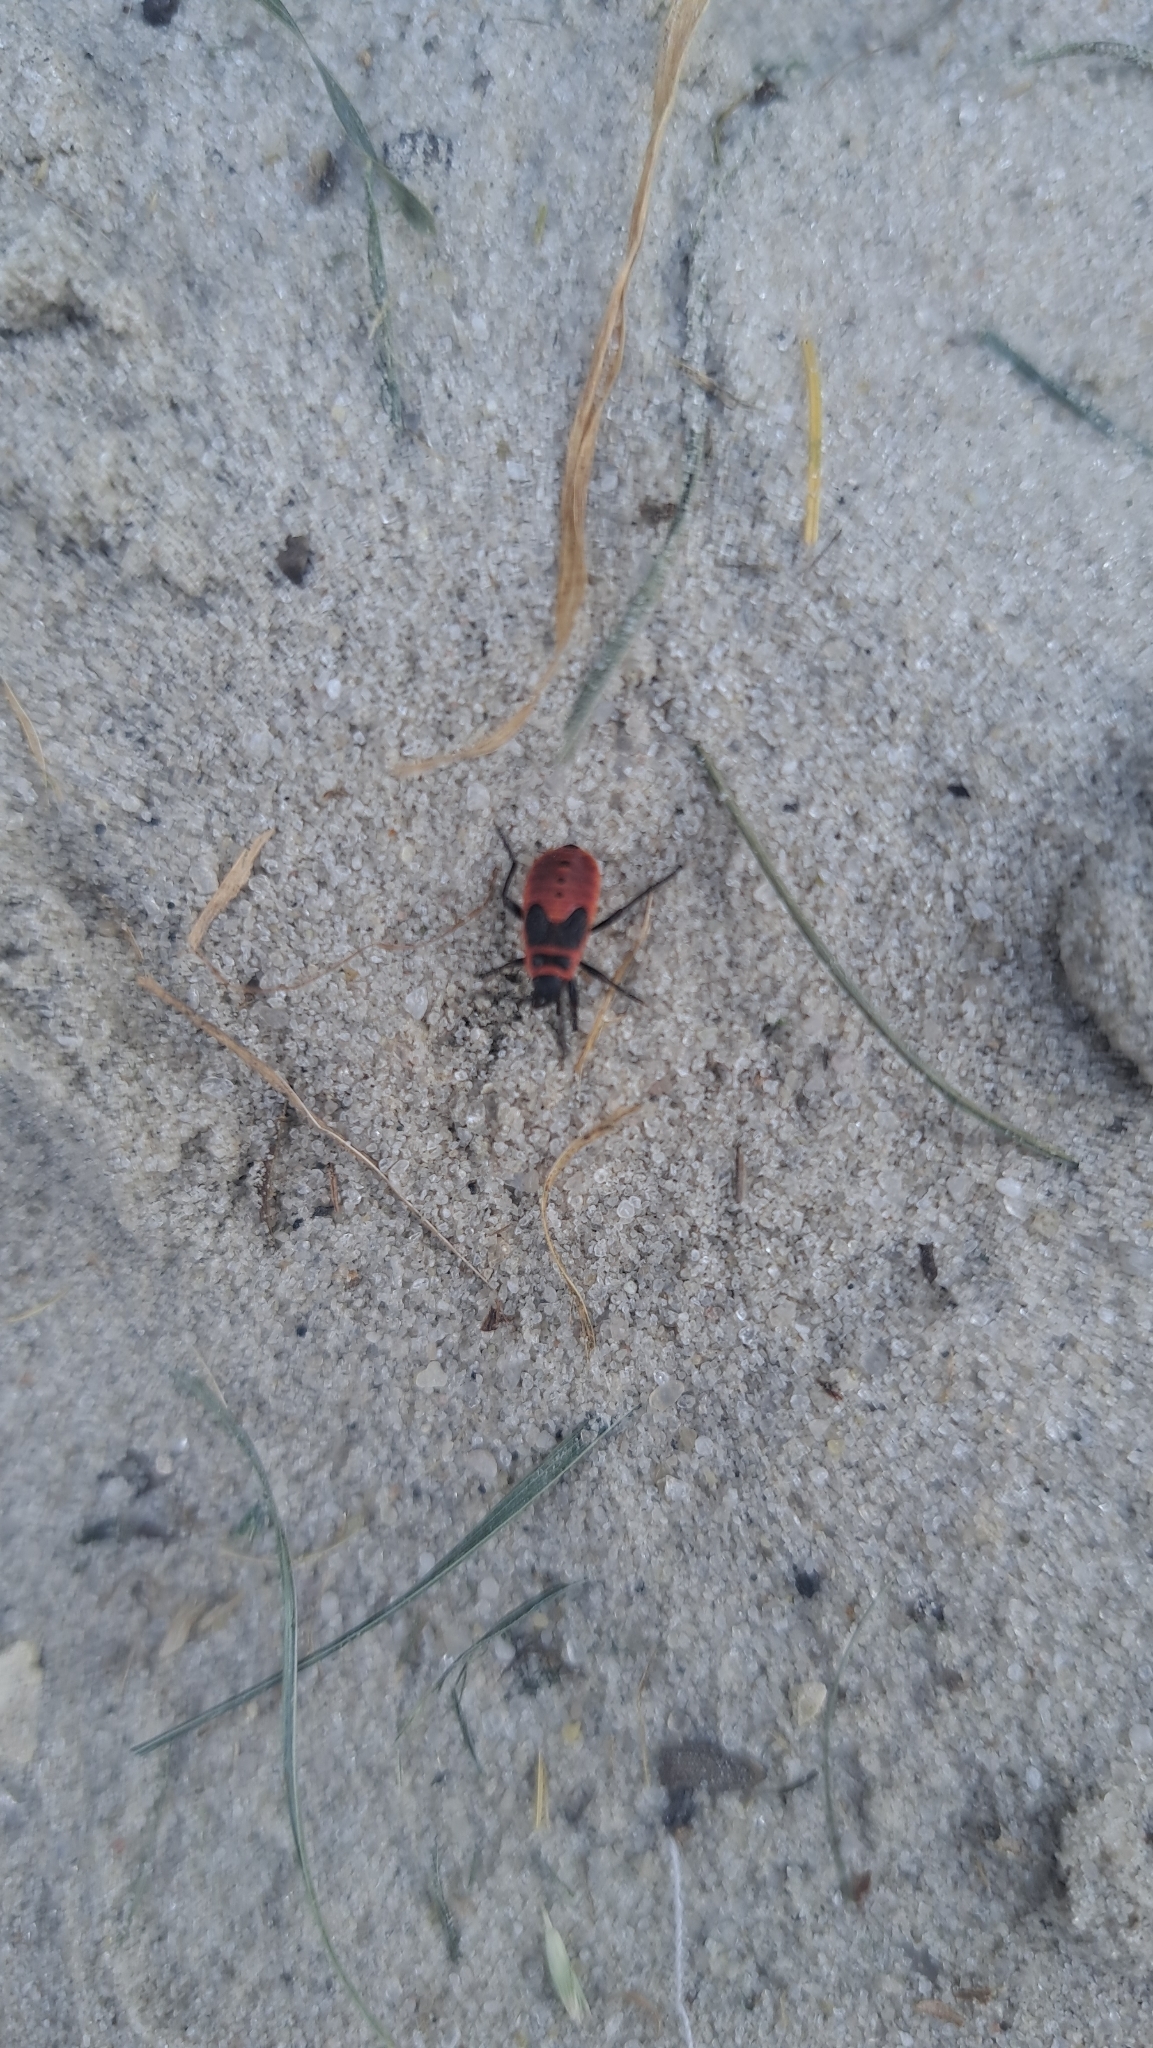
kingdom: Animalia
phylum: Arthropoda
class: Insecta
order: Hemiptera
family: Pyrrhocoridae
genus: Pyrrhocoris
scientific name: Pyrrhocoris apterus
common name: Firebug
